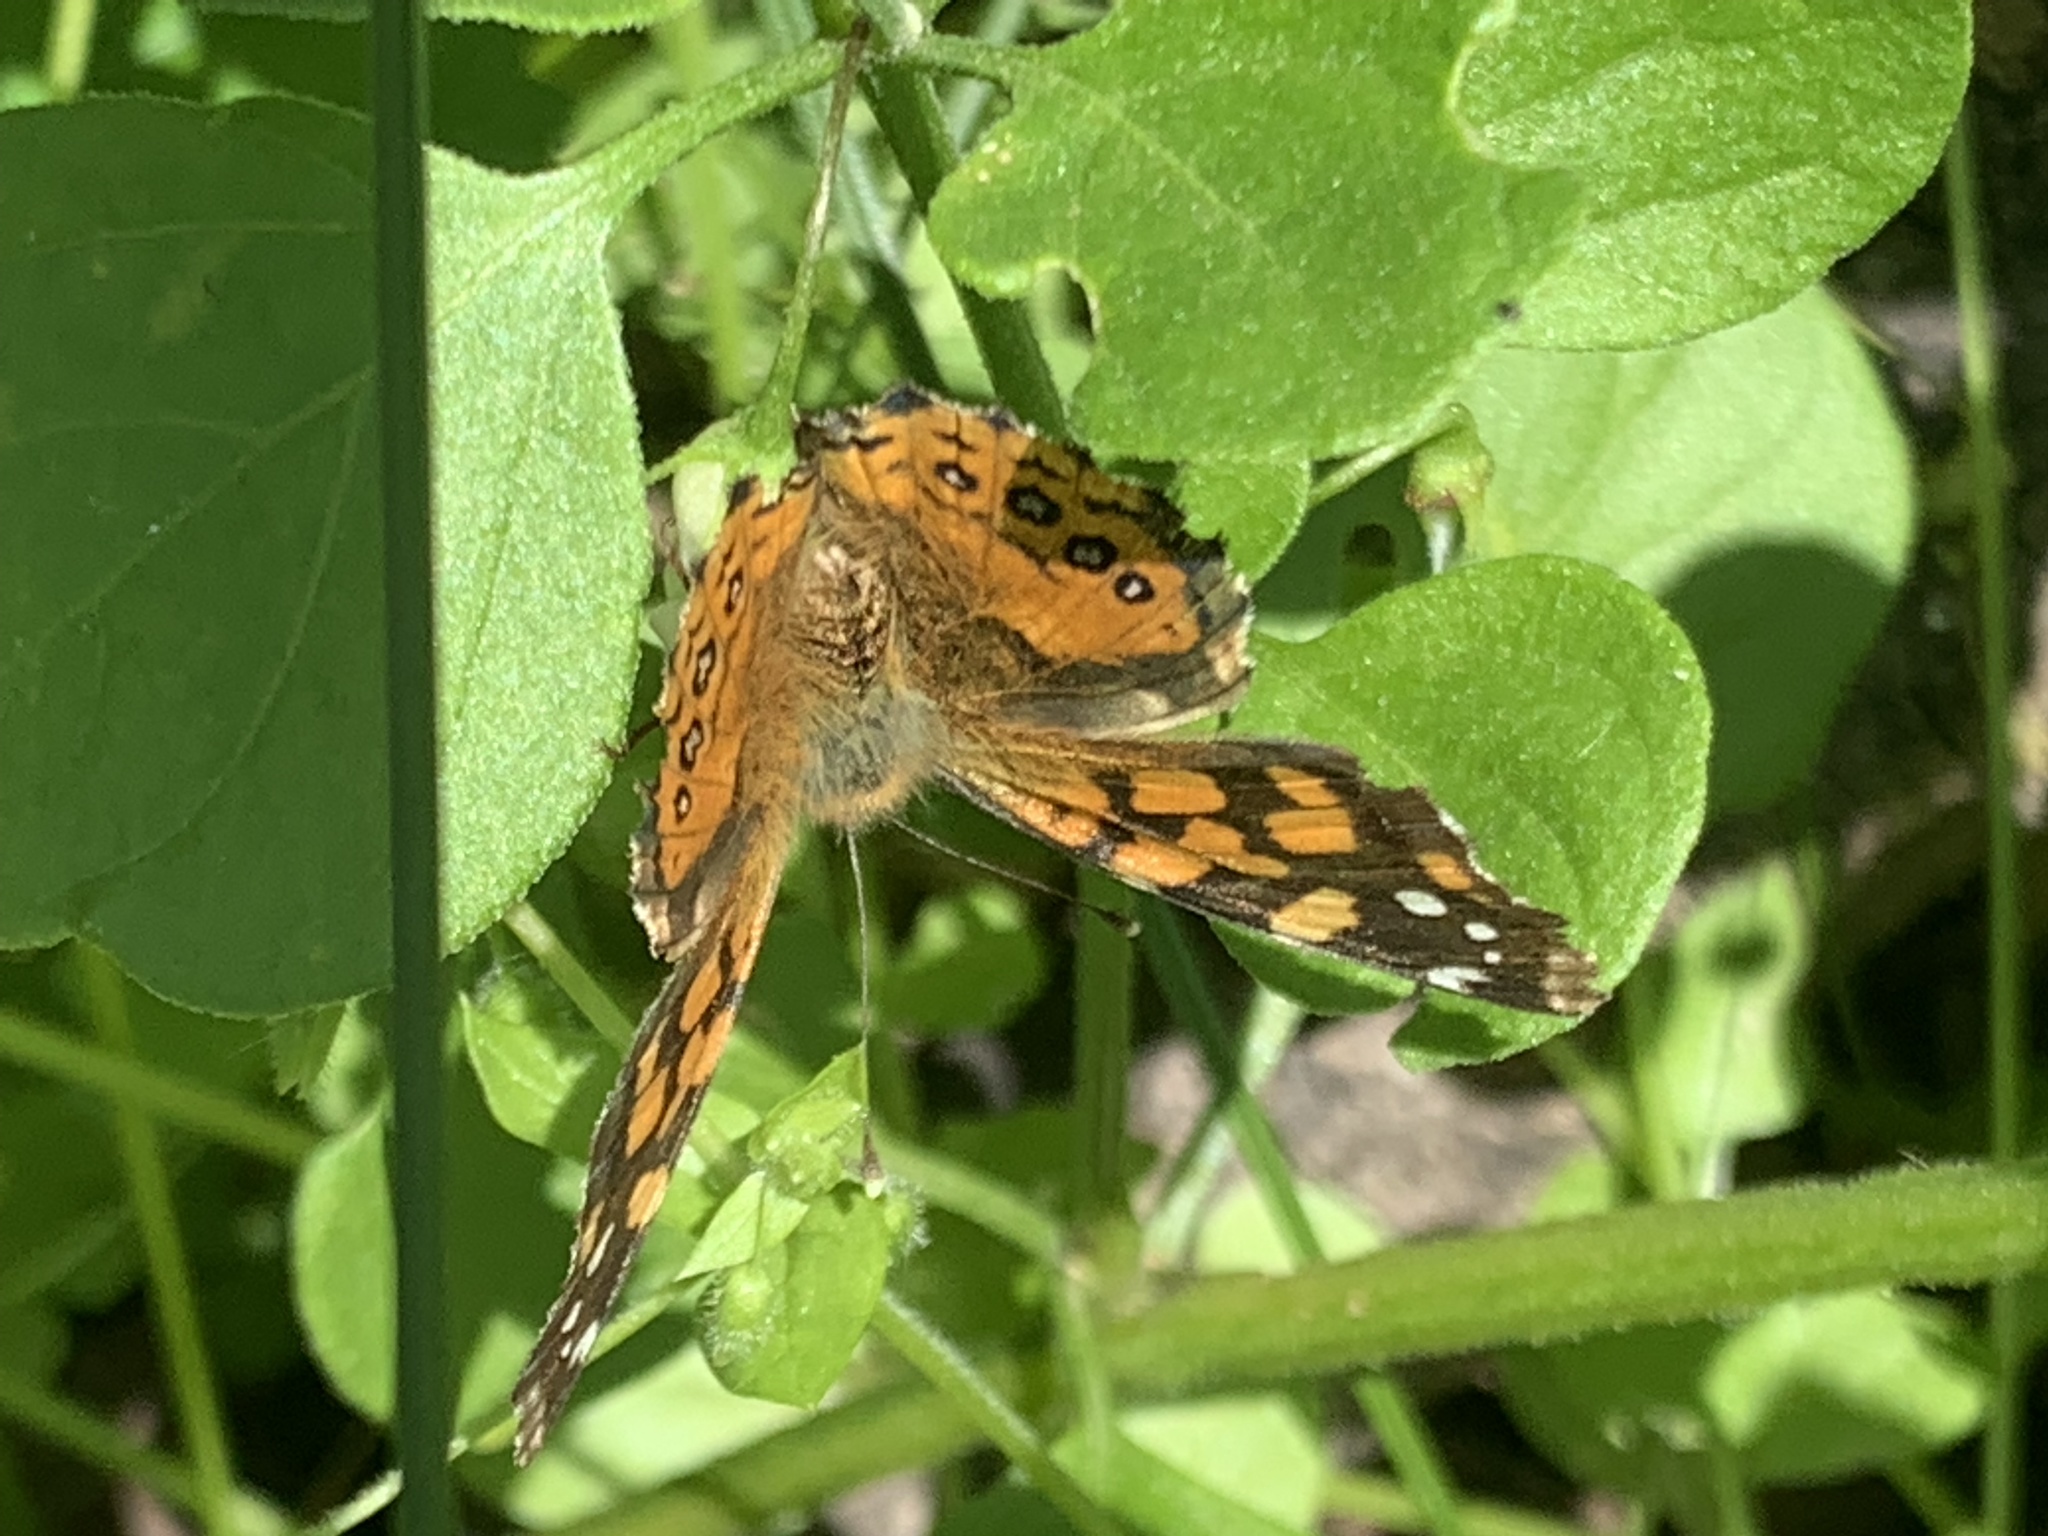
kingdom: Animalia
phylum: Arthropoda
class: Insecta
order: Lepidoptera
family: Nymphalidae
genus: Vanessa
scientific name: Vanessa carye
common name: Subtropical lady
